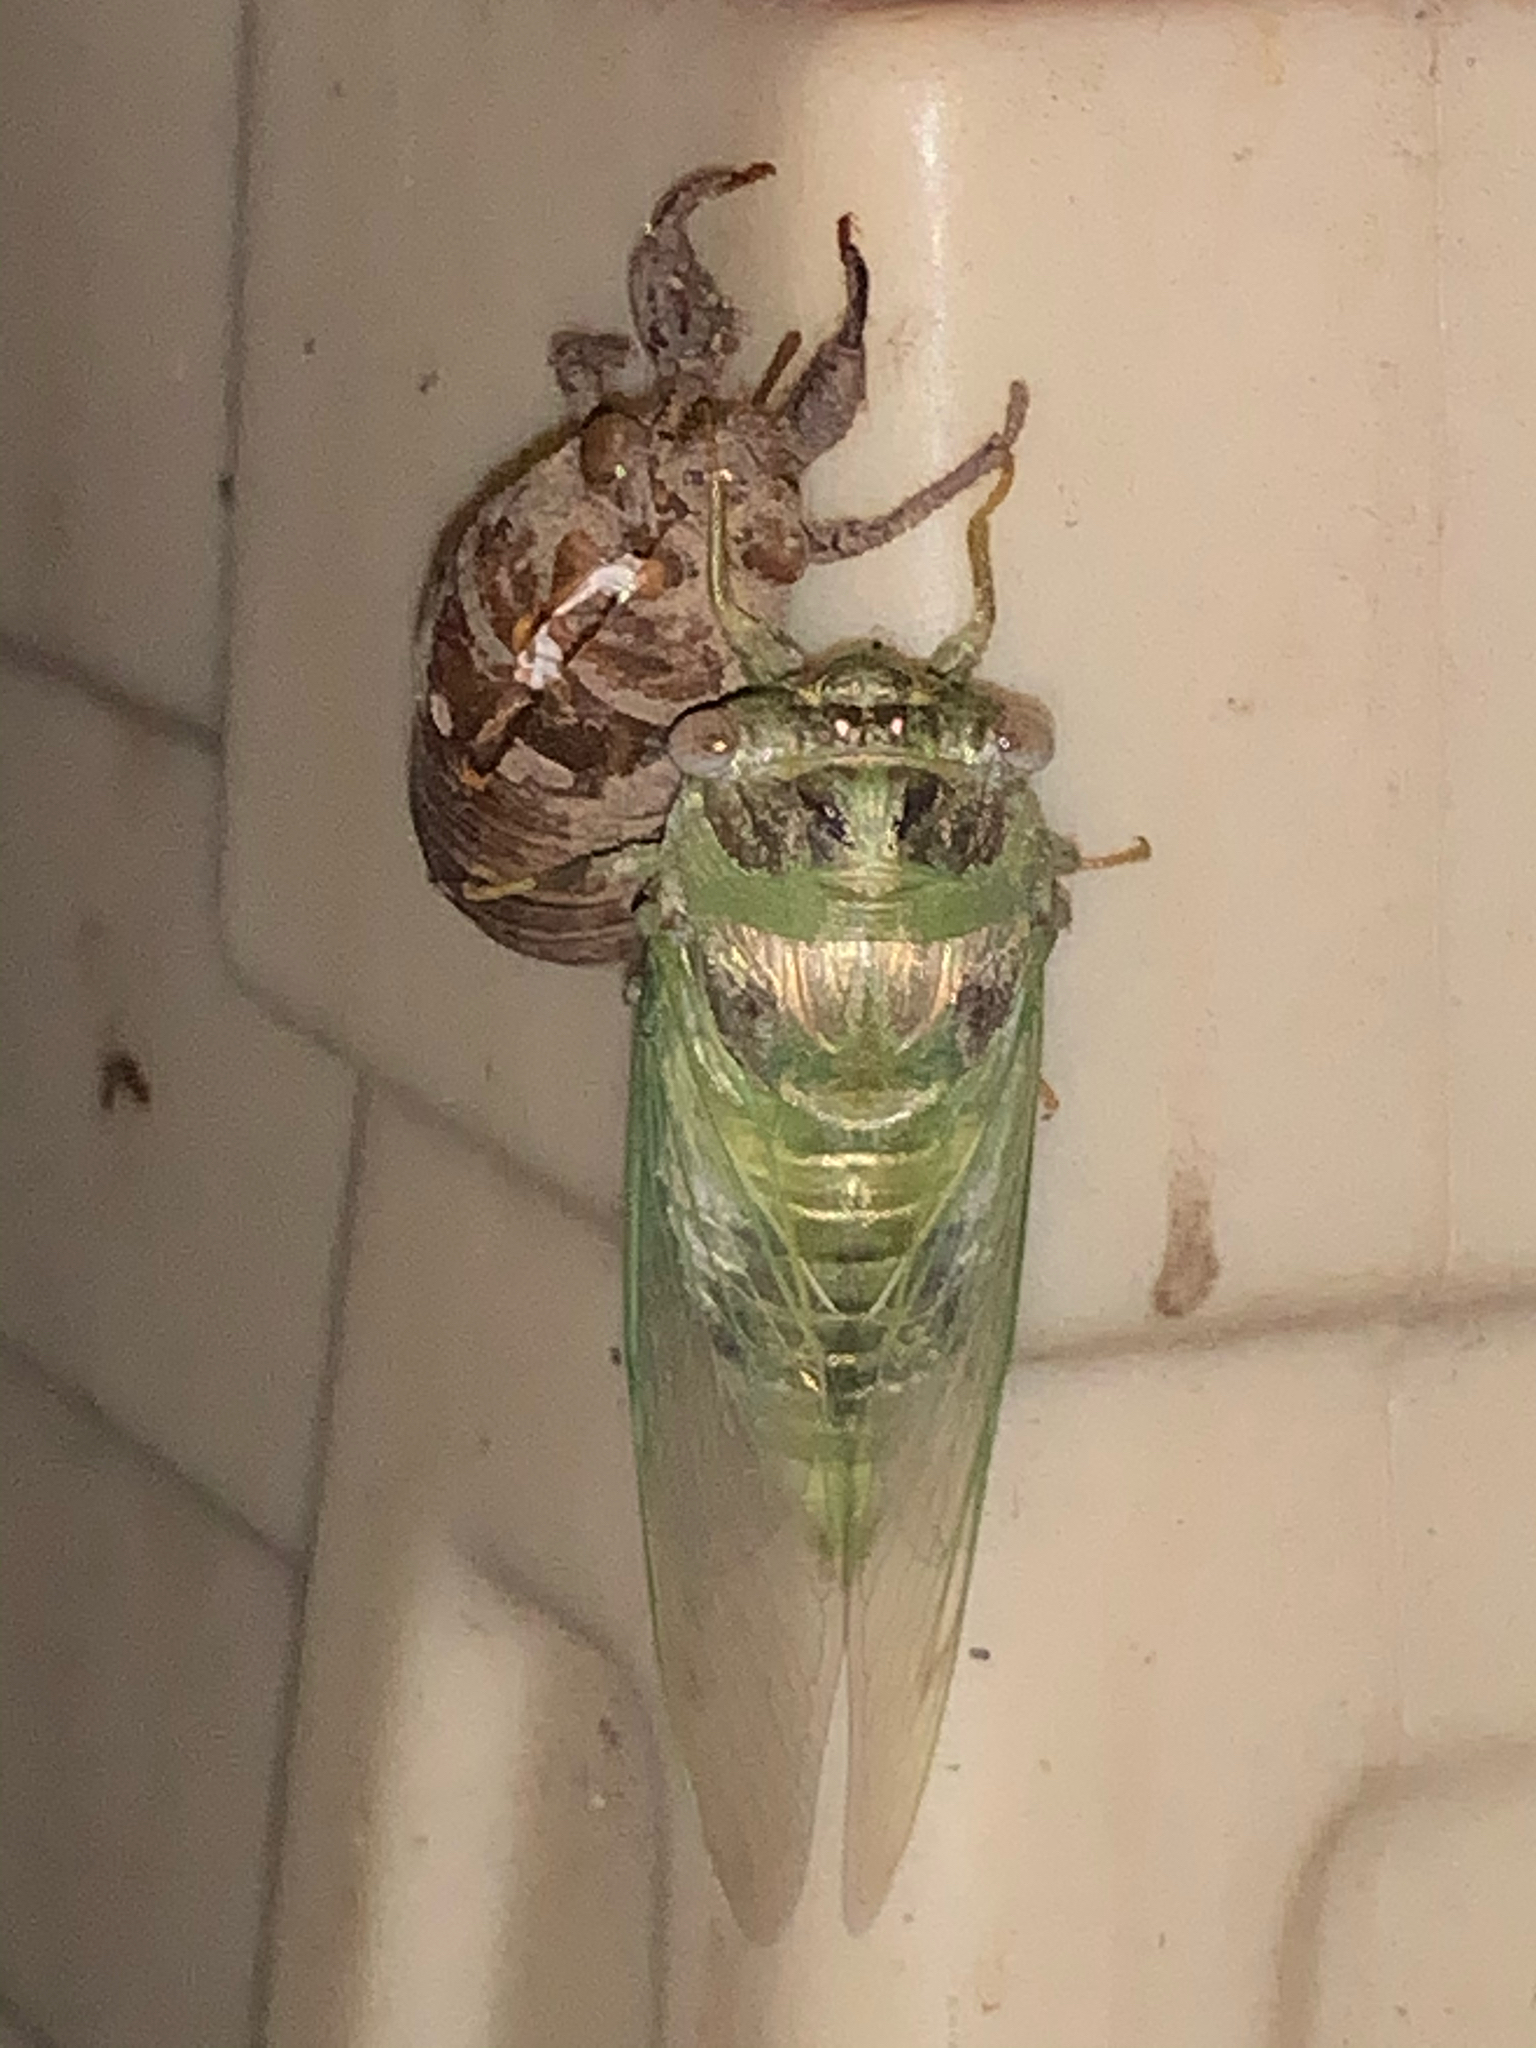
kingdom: Animalia
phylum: Arthropoda
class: Insecta
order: Hemiptera
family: Cicadidae
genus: Diceroprocta
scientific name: Diceroprocta grossa
